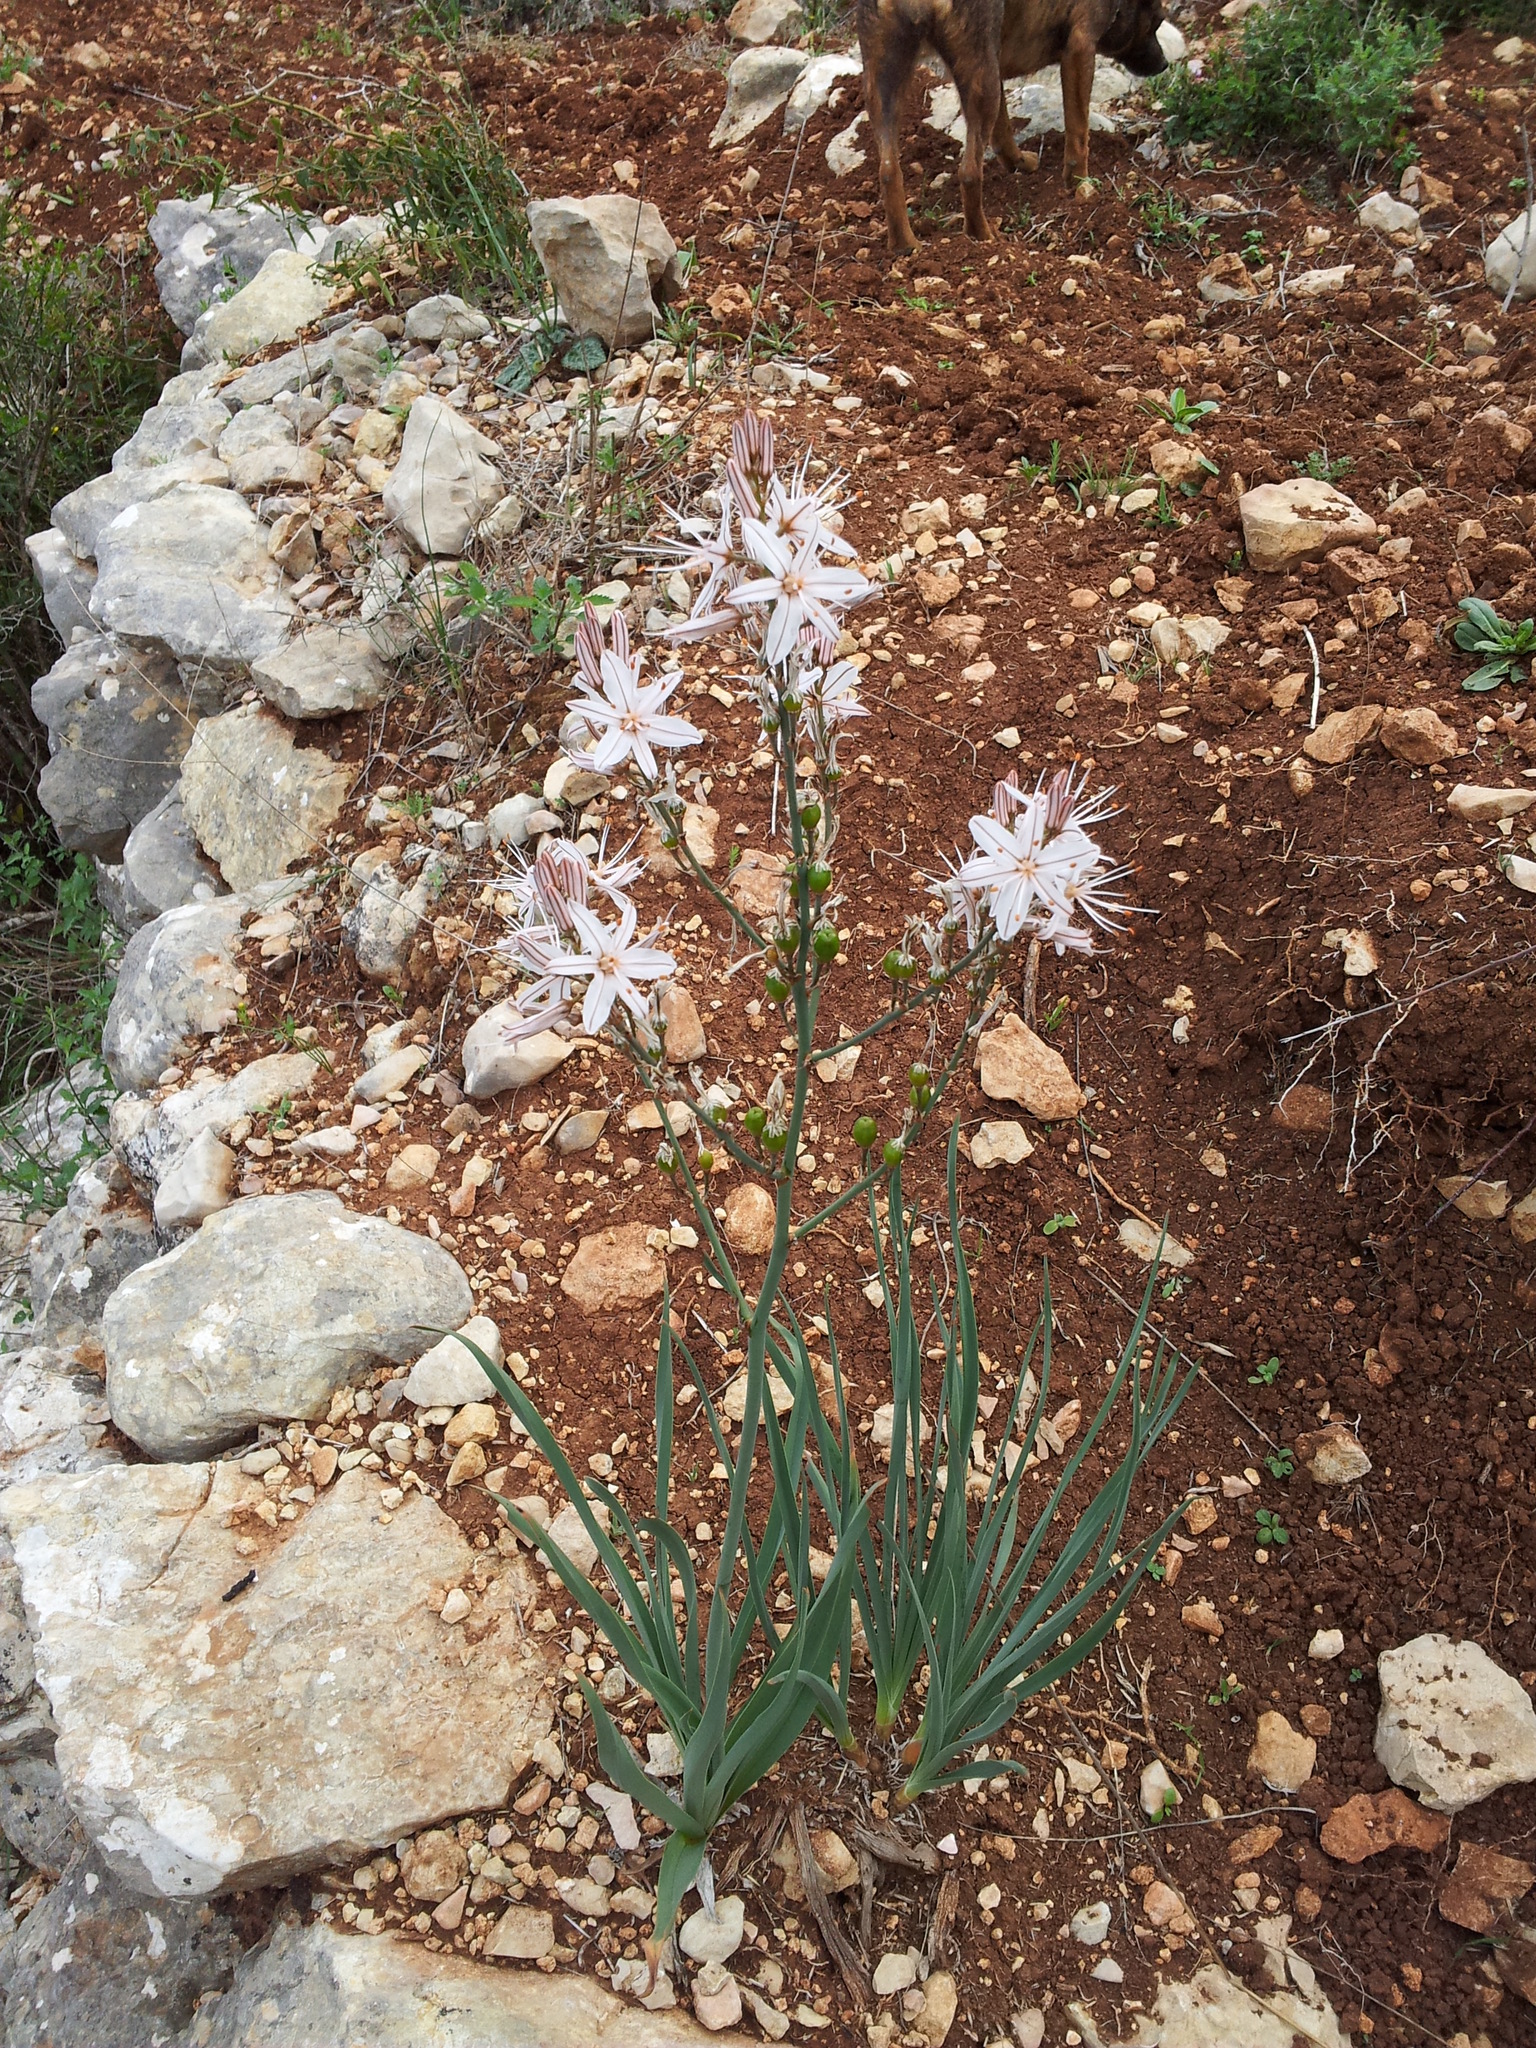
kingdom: Plantae
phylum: Tracheophyta
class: Liliopsida
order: Asparagales
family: Asphodelaceae
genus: Asphodelus
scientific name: Asphodelus ramosus
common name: Silverrod
